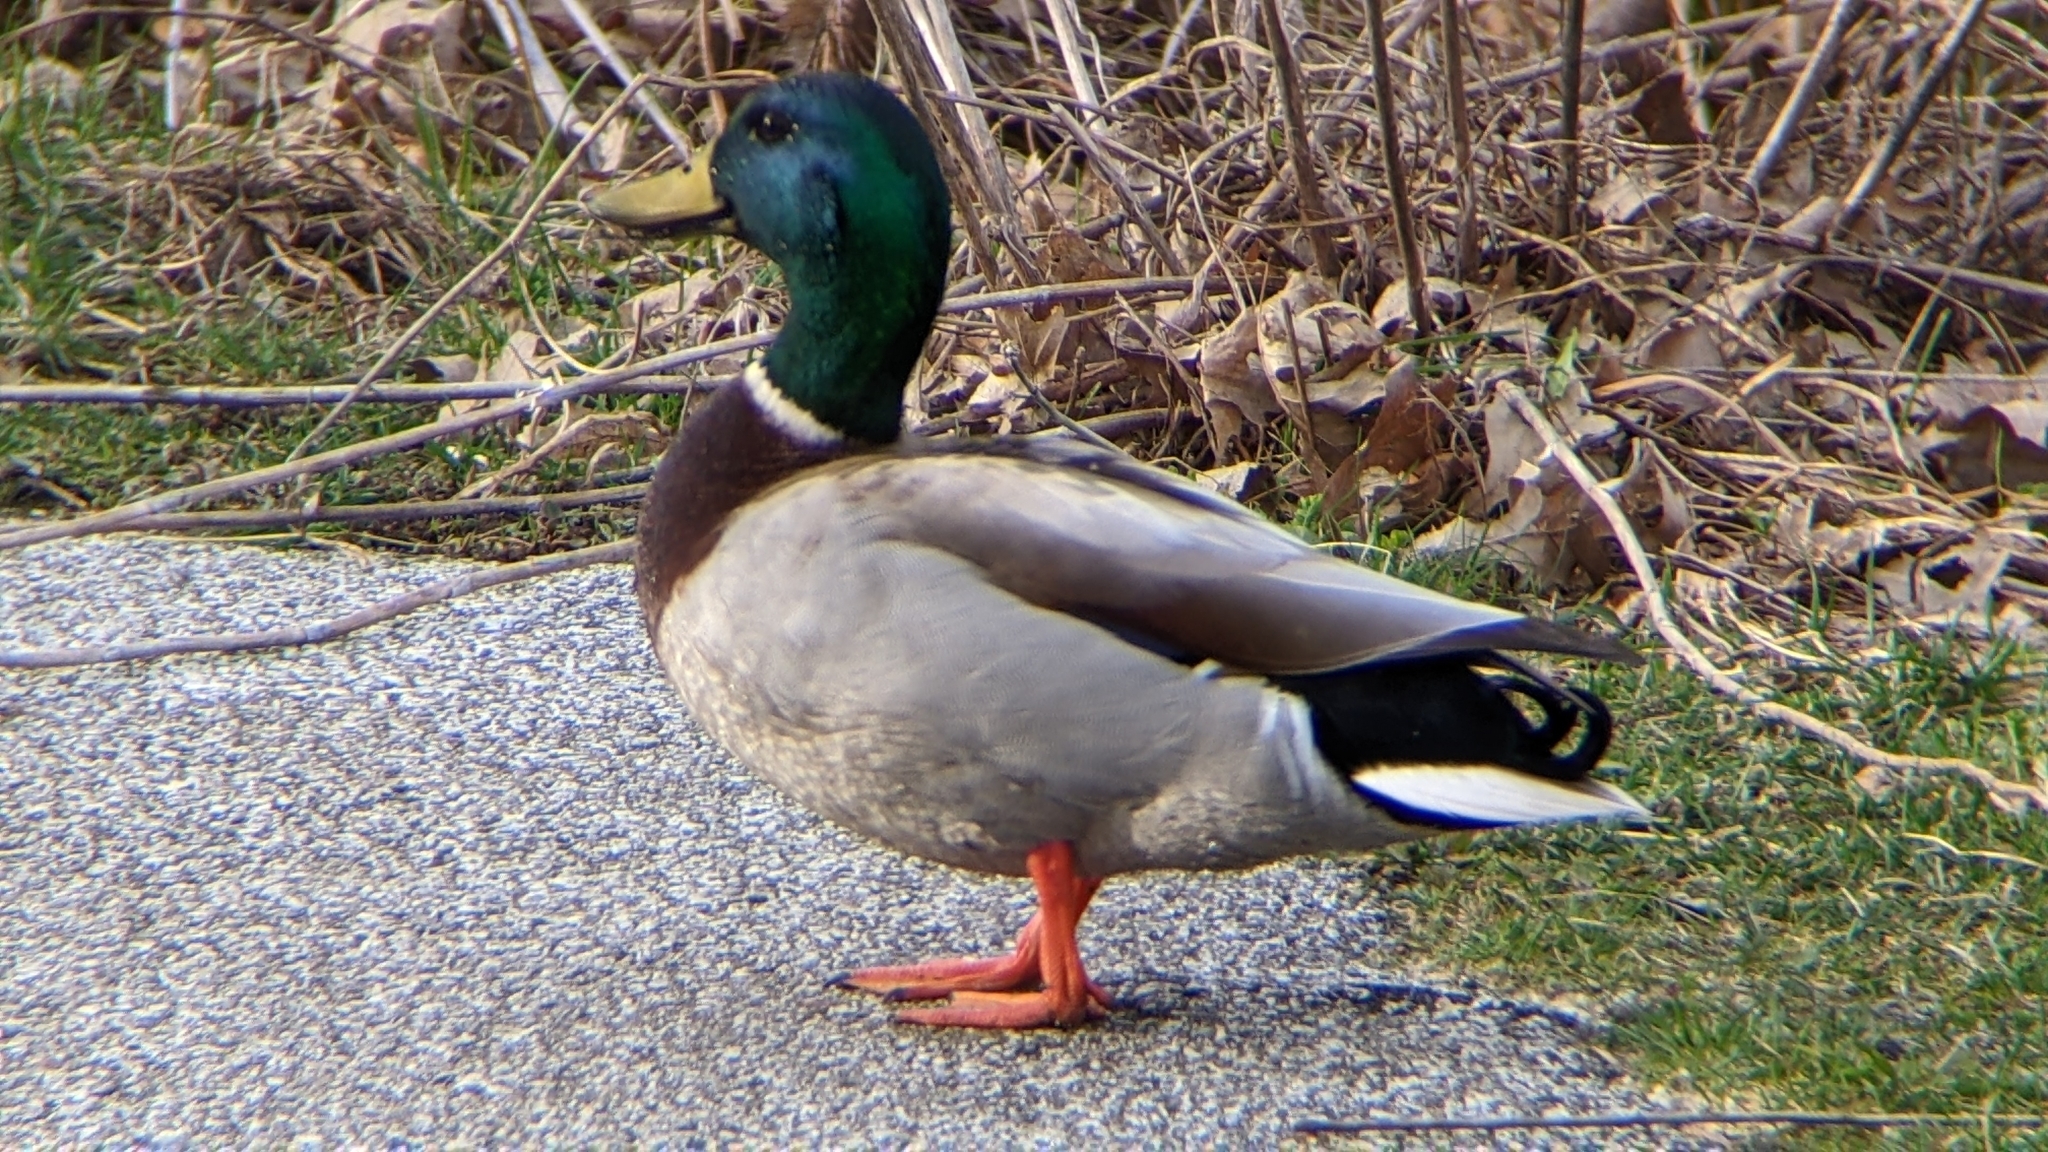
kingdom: Animalia
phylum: Chordata
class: Aves
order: Anseriformes
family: Anatidae
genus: Anas
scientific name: Anas platyrhynchos
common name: Mallard
